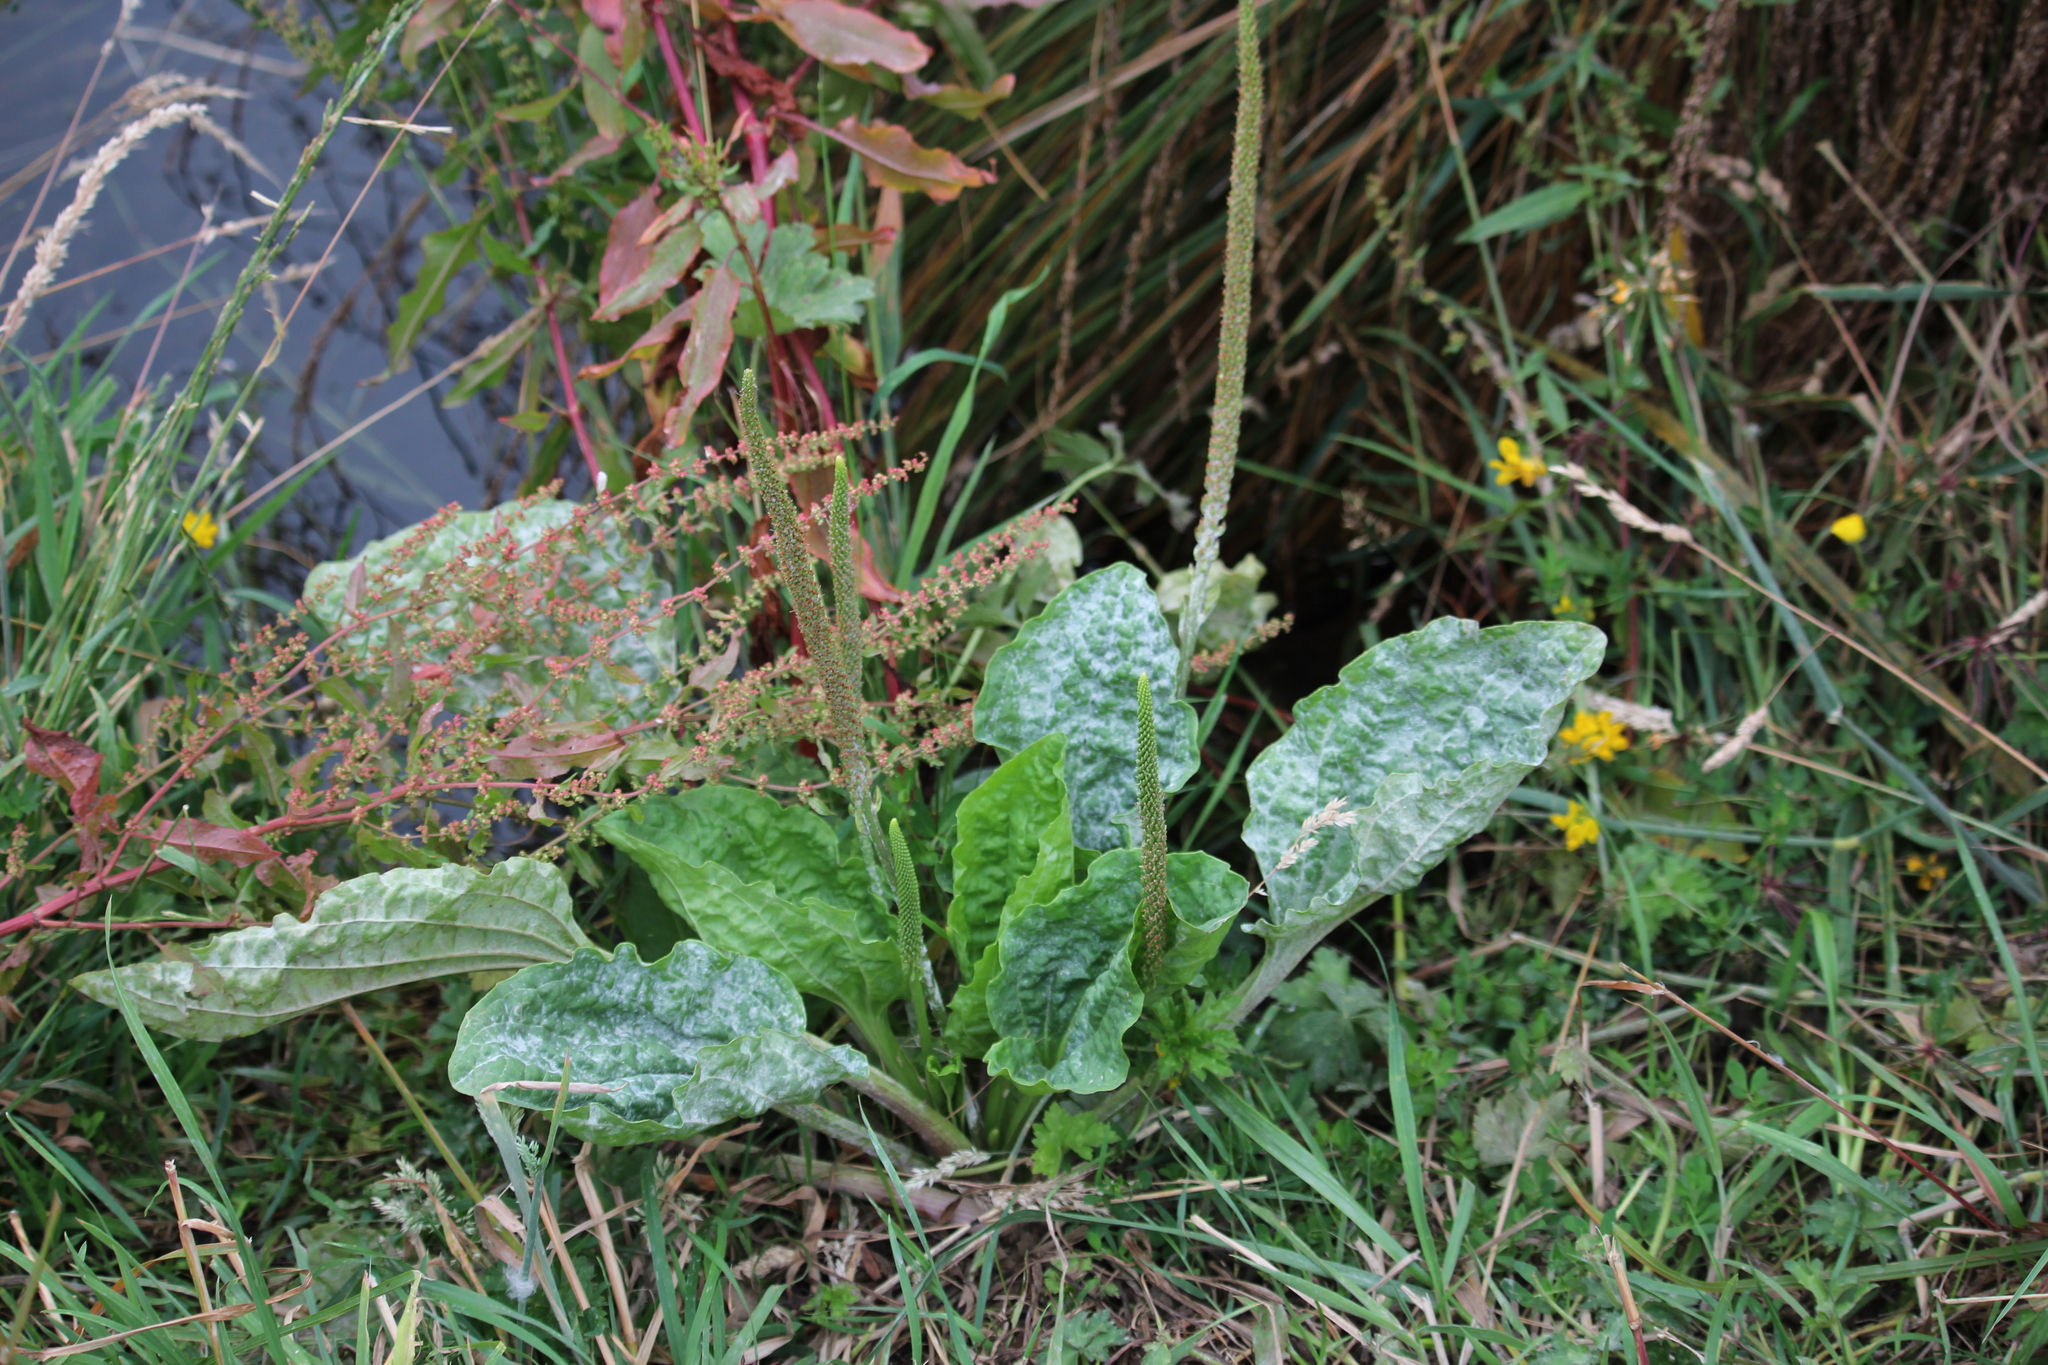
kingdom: Plantae
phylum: Tracheophyta
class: Magnoliopsida
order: Lamiales
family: Plantaginaceae
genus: Plantago
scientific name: Plantago major
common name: Common plantain
